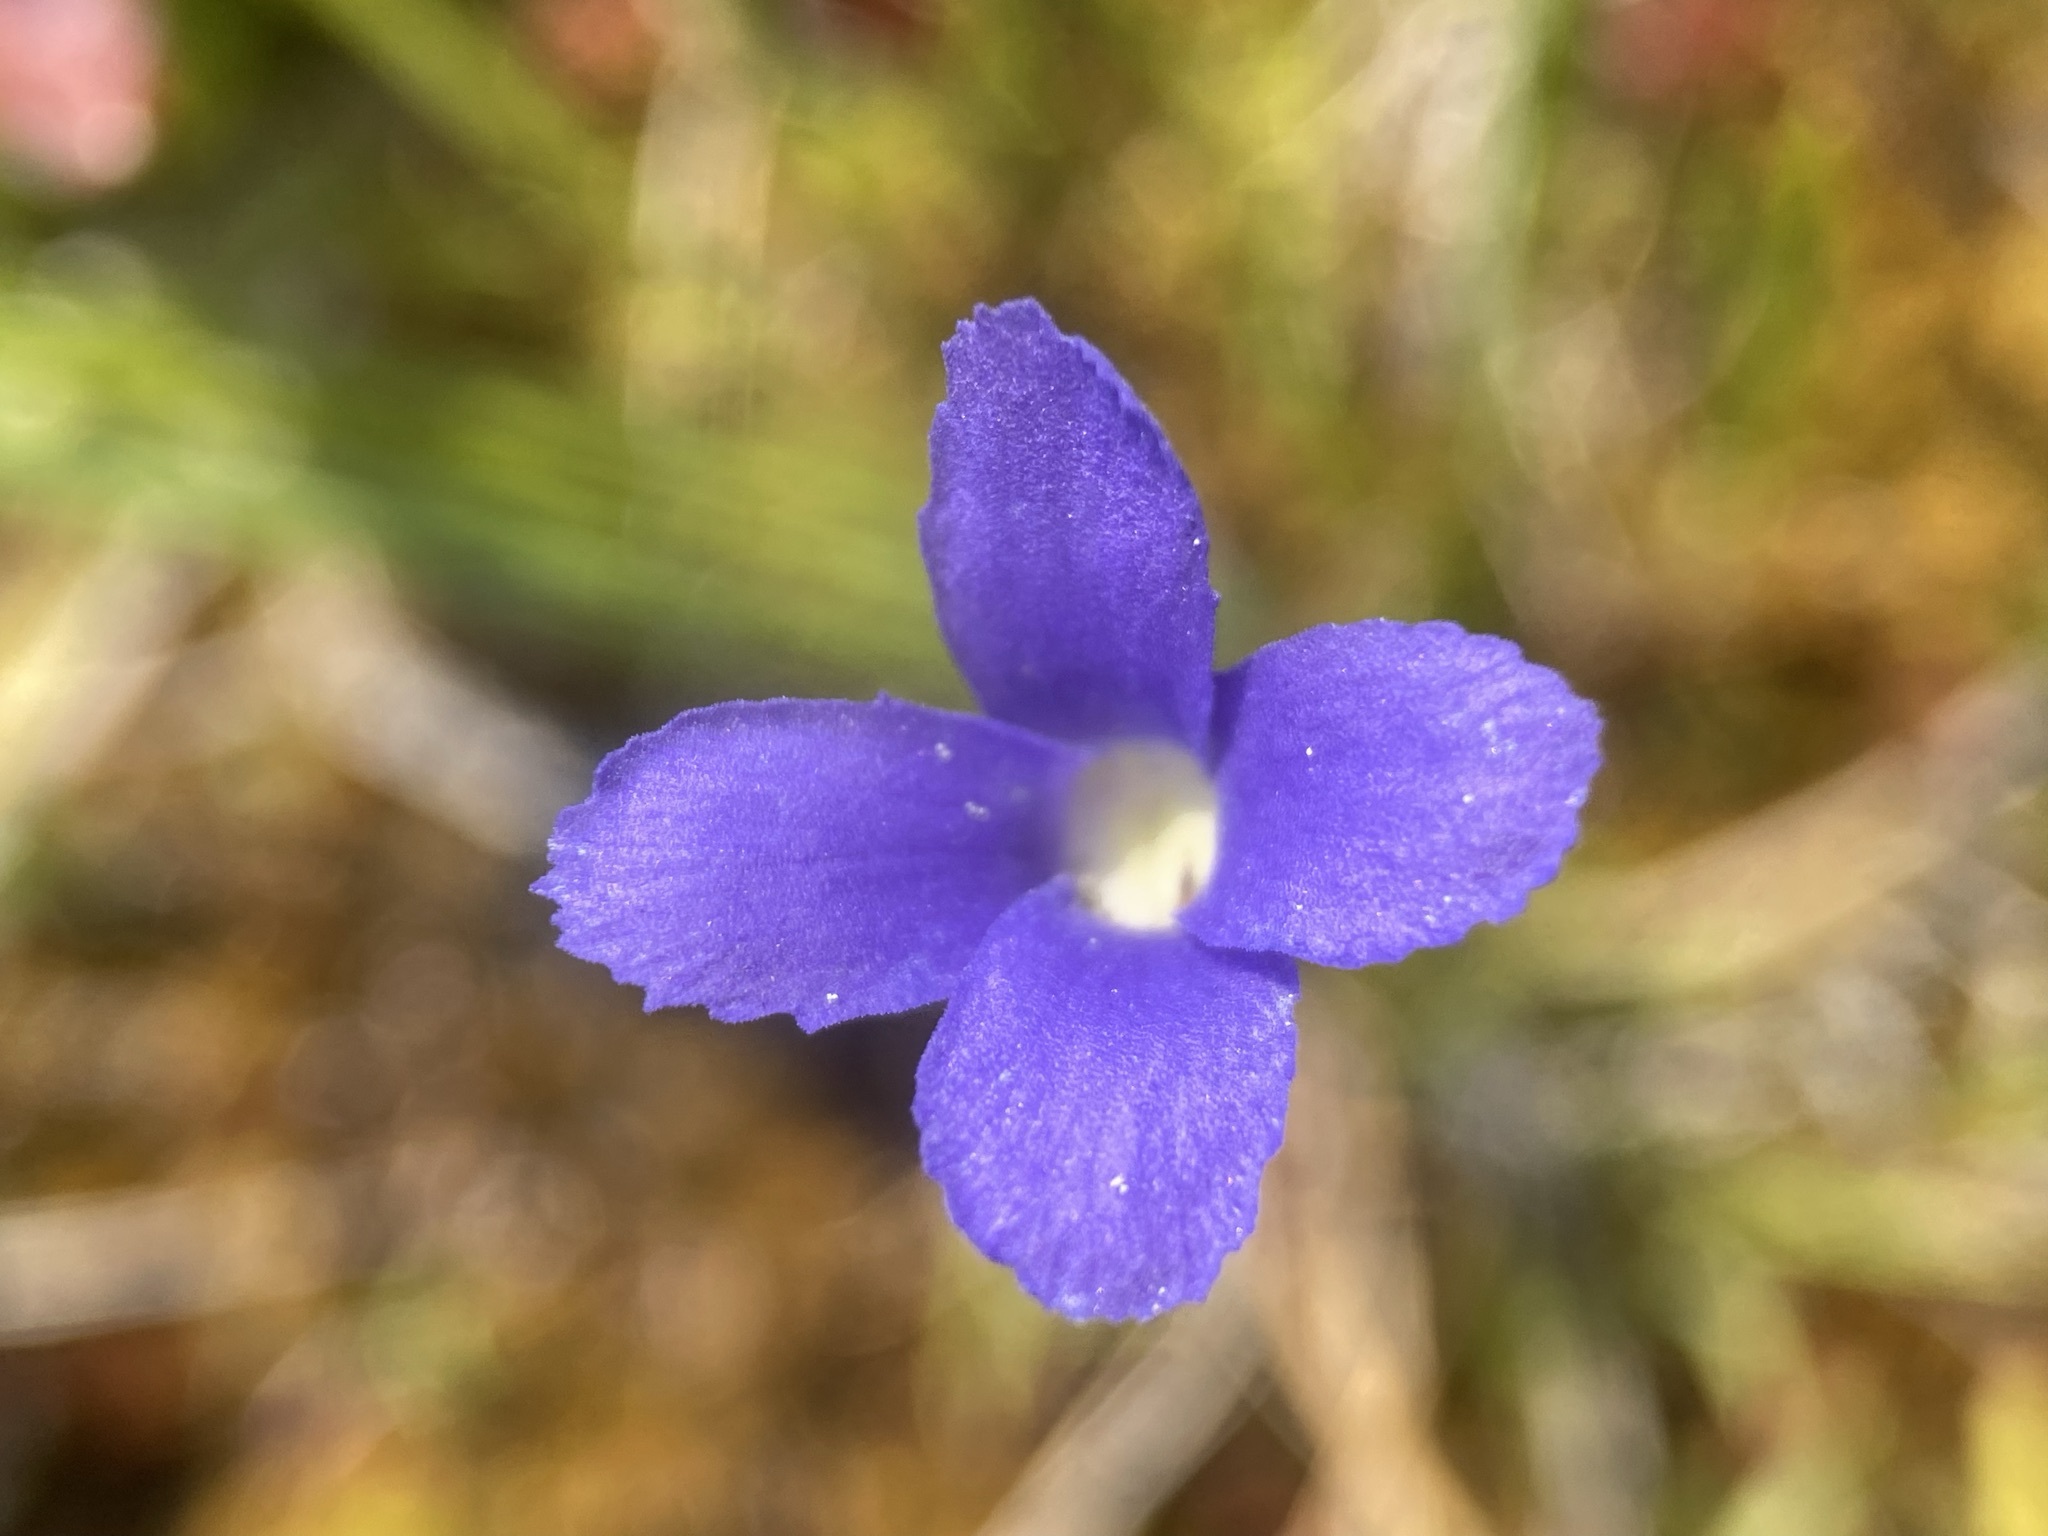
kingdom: Plantae
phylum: Tracheophyta
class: Magnoliopsida
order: Gentianales
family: Gentianaceae
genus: Gentianopsis
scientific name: Gentianopsis simplex
